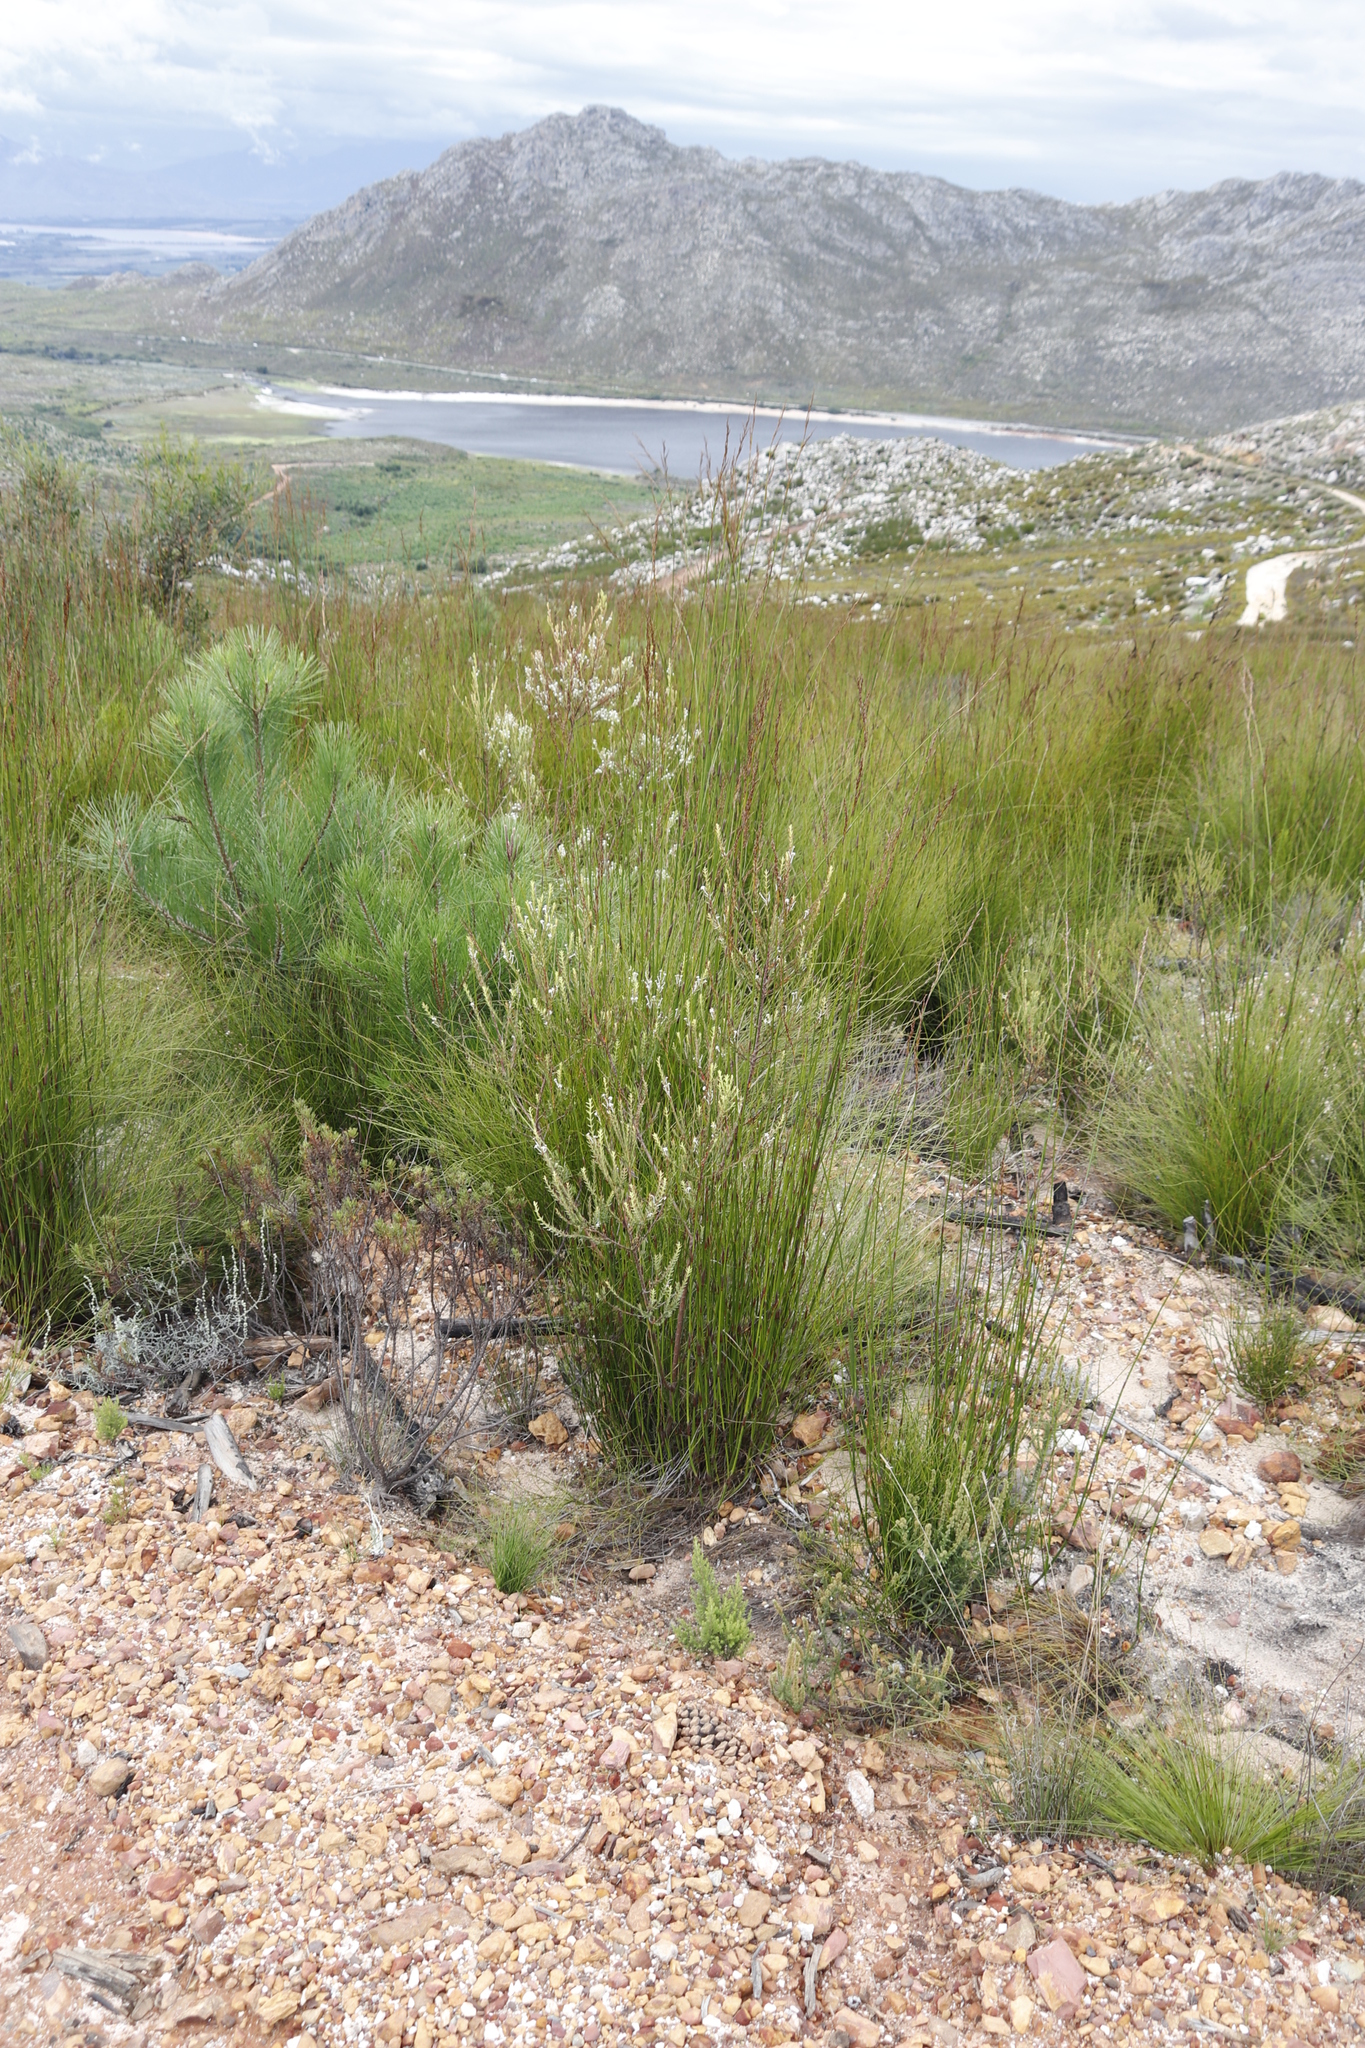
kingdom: Plantae
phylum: Tracheophyta
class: Magnoliopsida
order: Malvales
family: Thymelaeaceae
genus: Struthiola
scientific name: Struthiola myrsinites
